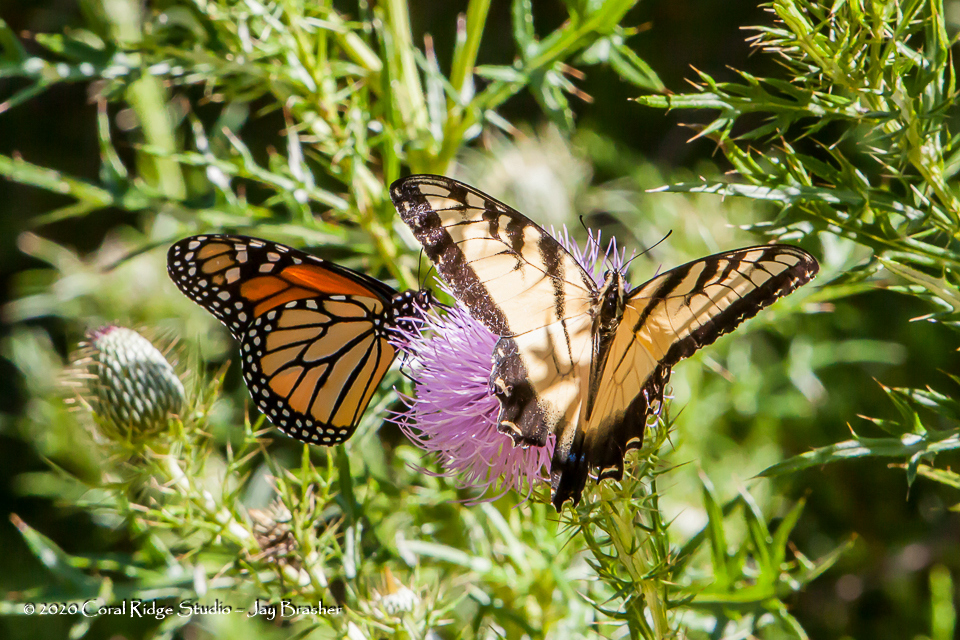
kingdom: Animalia
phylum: Arthropoda
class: Insecta
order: Lepidoptera
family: Papilionidae
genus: Papilio
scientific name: Papilio glaucus
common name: Tiger swallowtail
